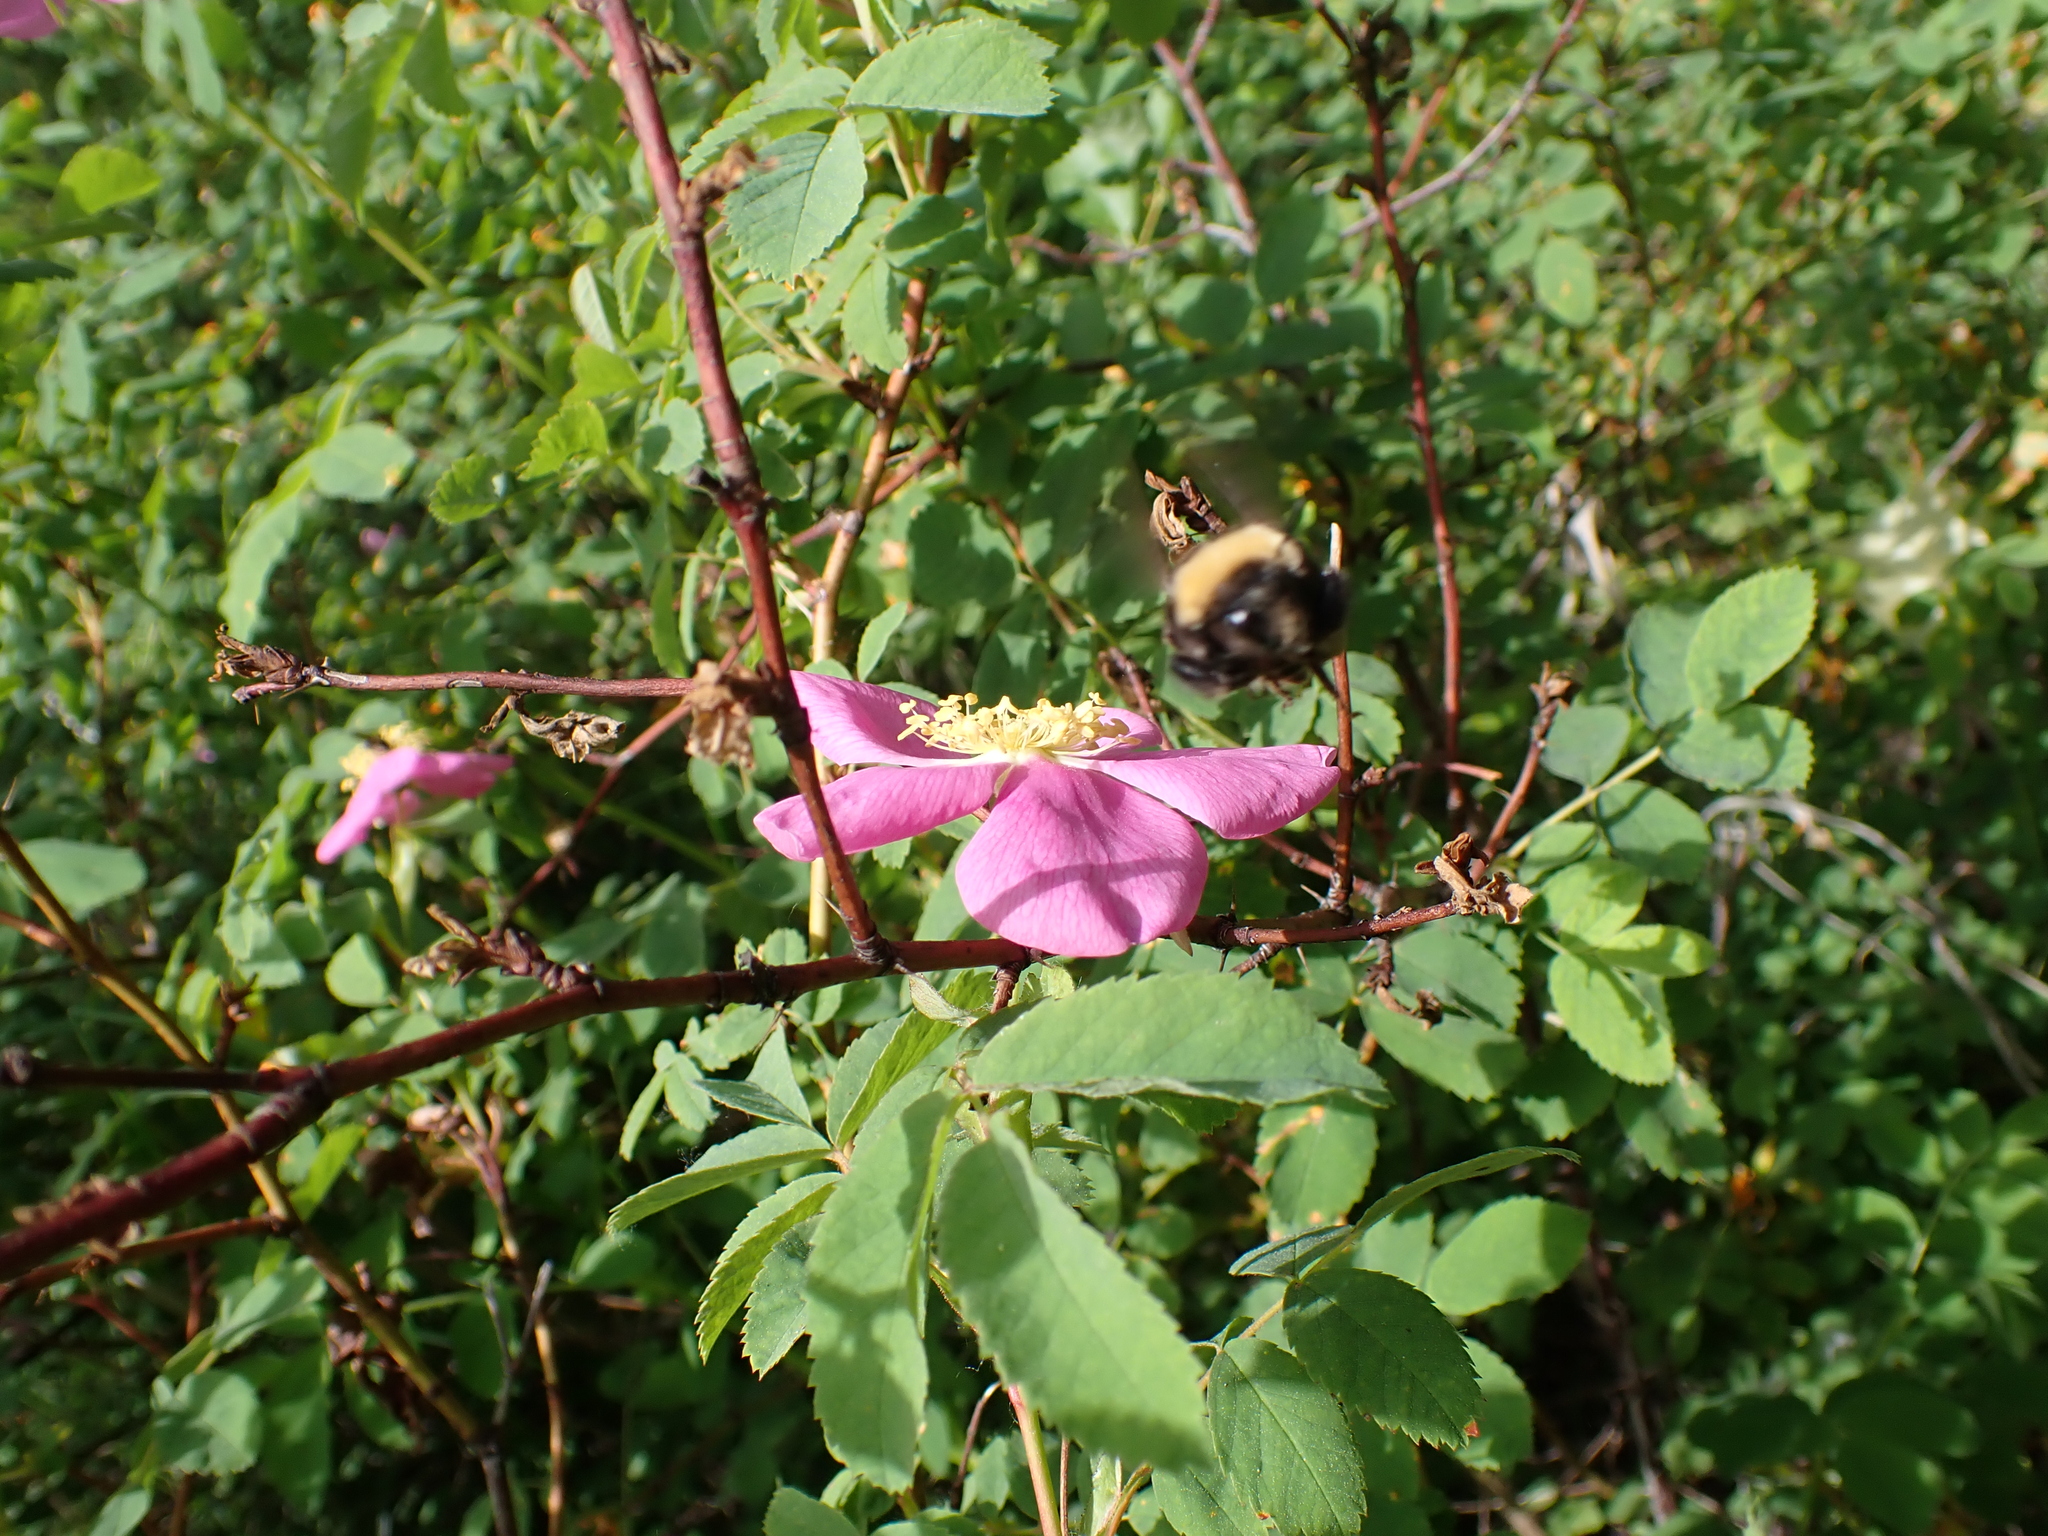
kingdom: Animalia
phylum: Arthropoda
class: Insecta
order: Hymenoptera
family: Apidae
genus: Bombus
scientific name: Bombus occidentalis
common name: Western bumble bee
